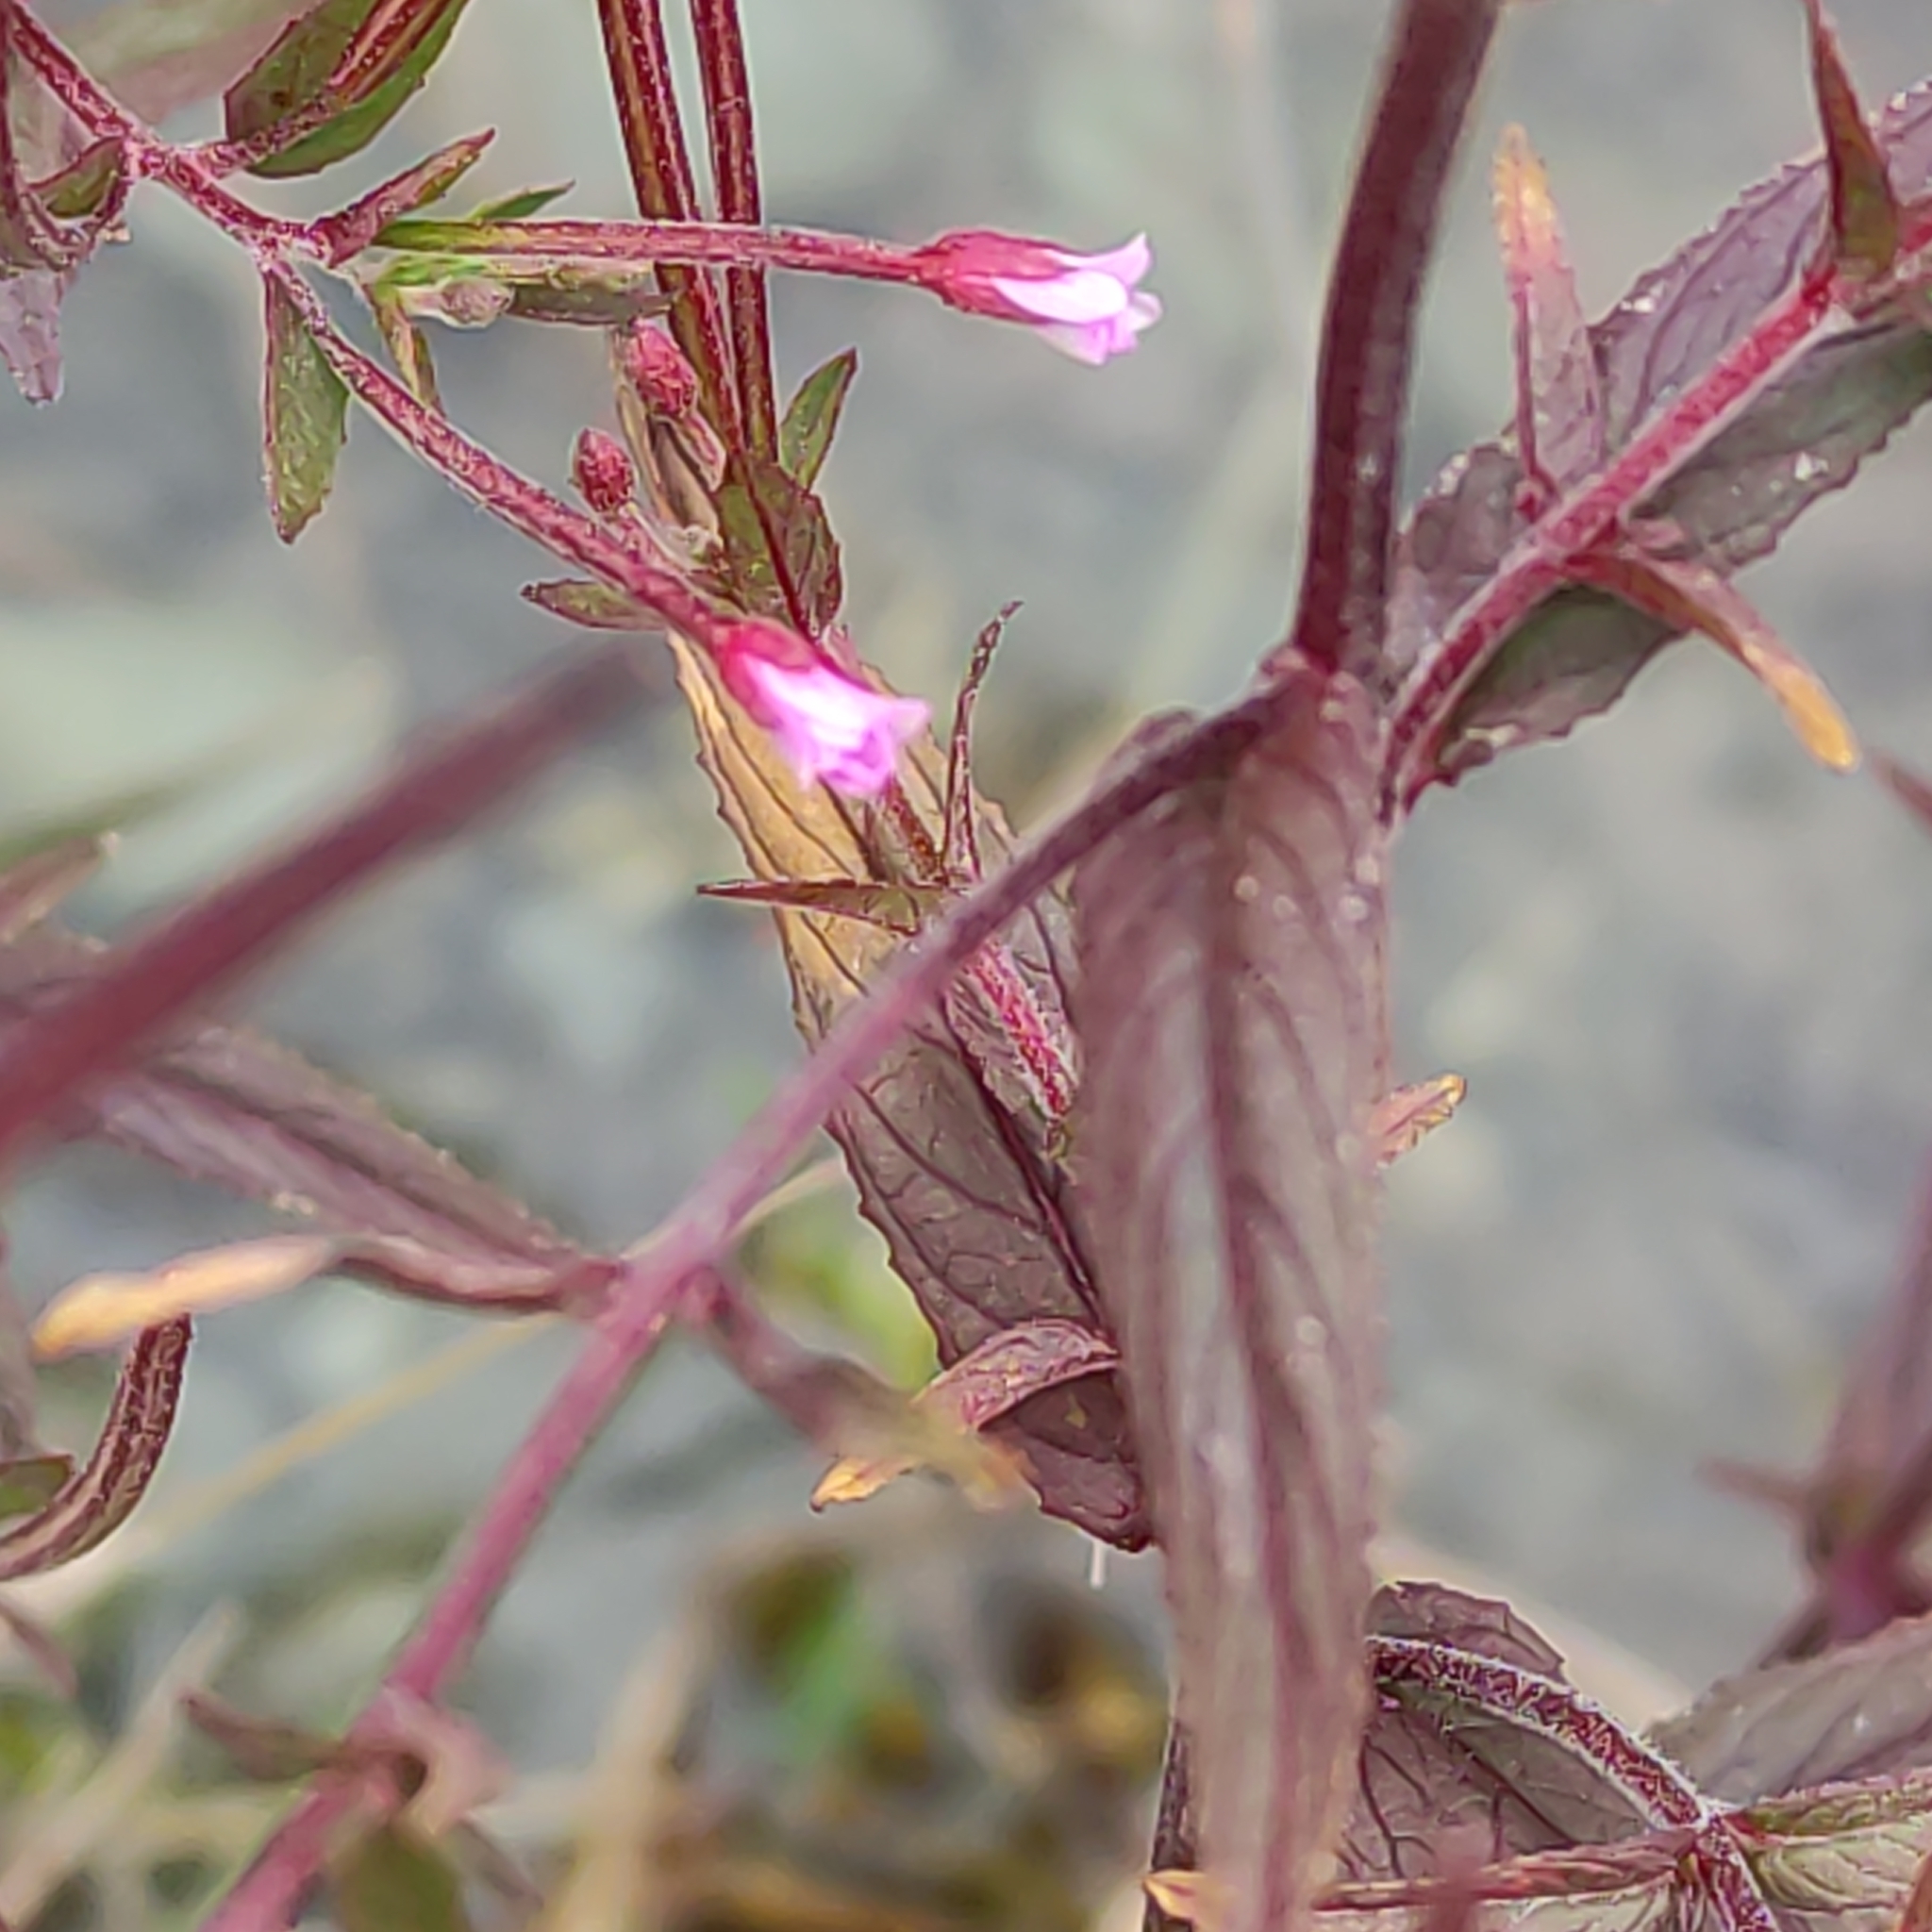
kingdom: Plantae
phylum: Tracheophyta
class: Magnoliopsida
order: Myrtales
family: Onagraceae
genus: Epilobium
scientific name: Epilobium ciliatum
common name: American willowherb
